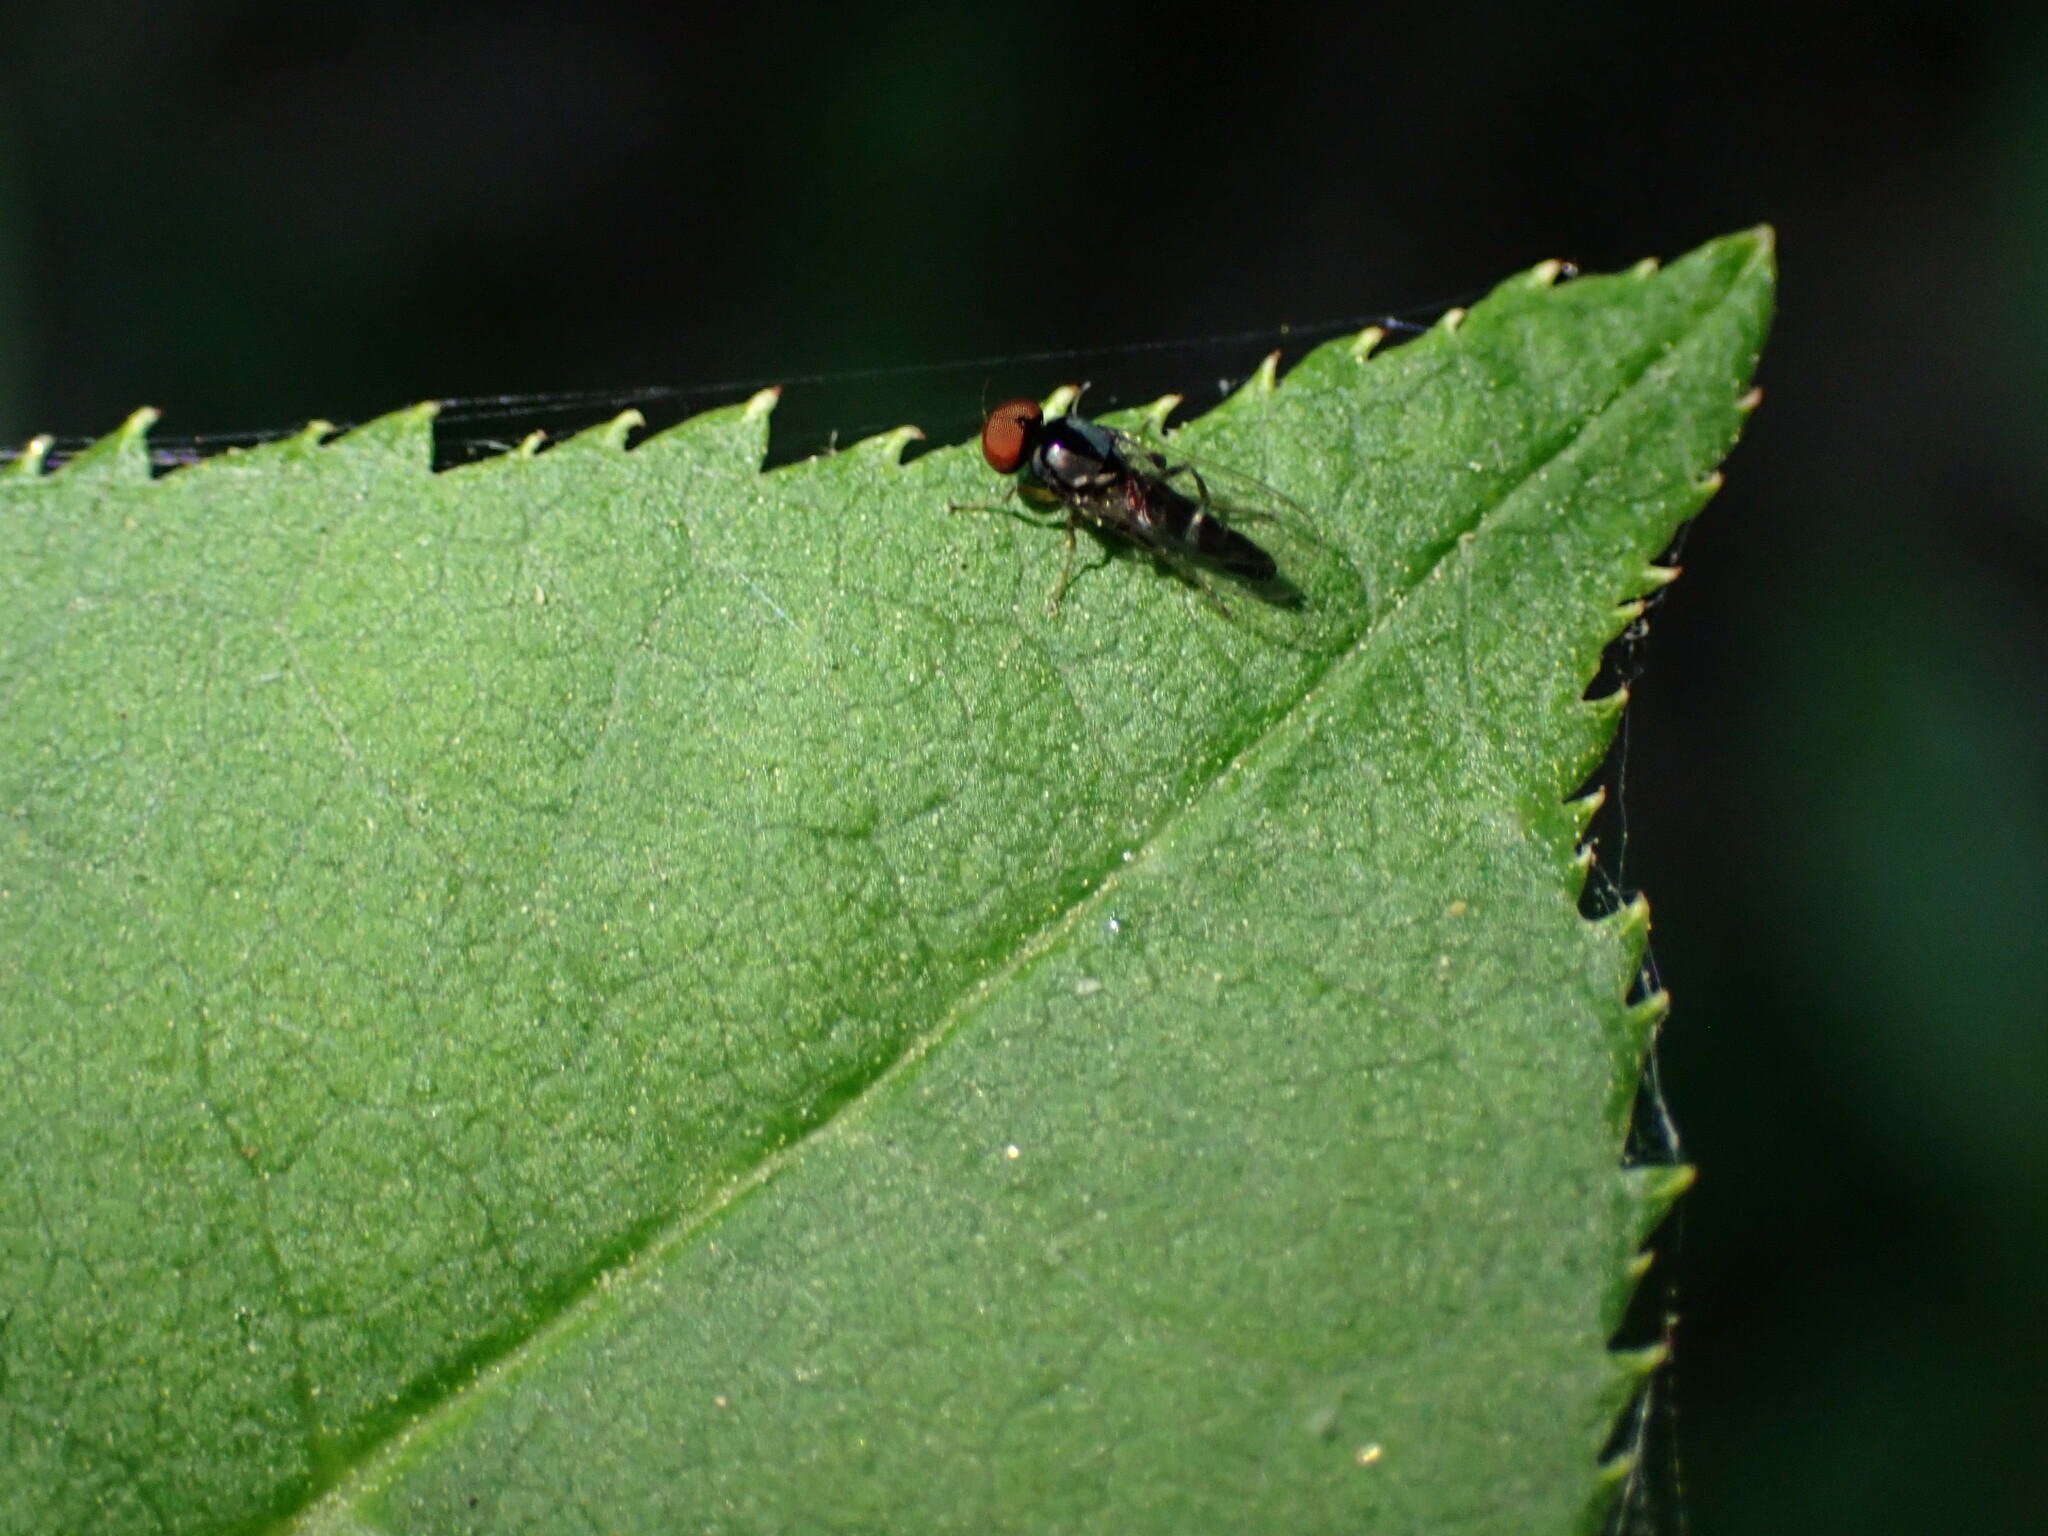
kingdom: Animalia
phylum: Arthropoda
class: Insecta
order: Diptera
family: Platypezidae
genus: Bertamyia
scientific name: Bertamyia notata
